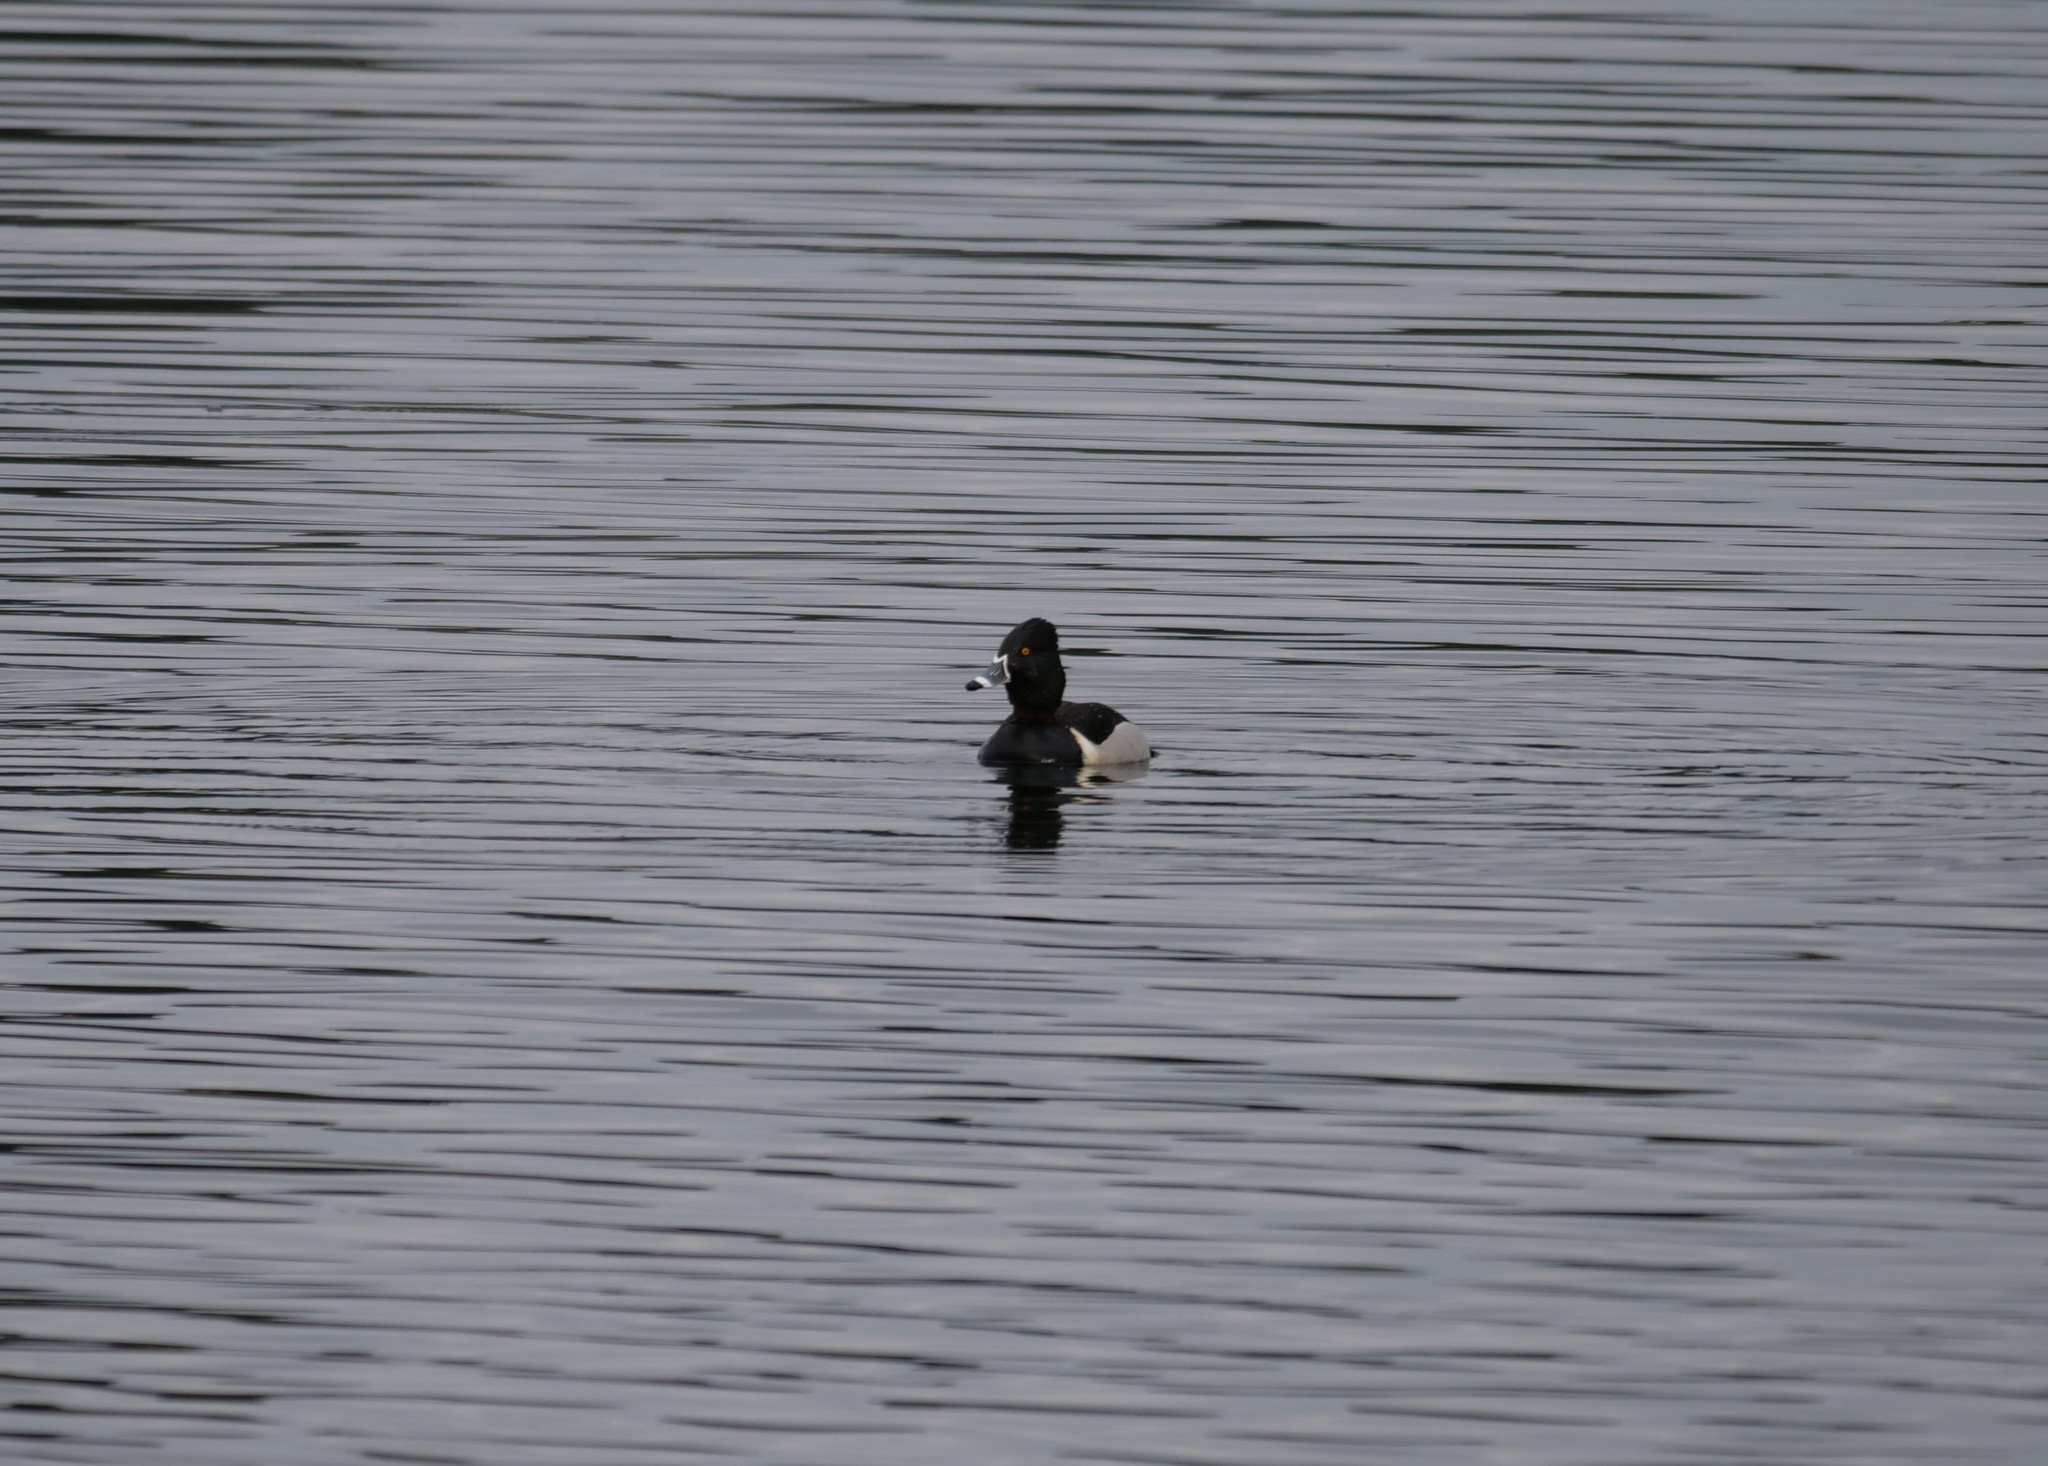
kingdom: Animalia
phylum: Chordata
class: Aves
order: Anseriformes
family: Anatidae
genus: Aythya
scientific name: Aythya collaris
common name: Ring-necked duck
